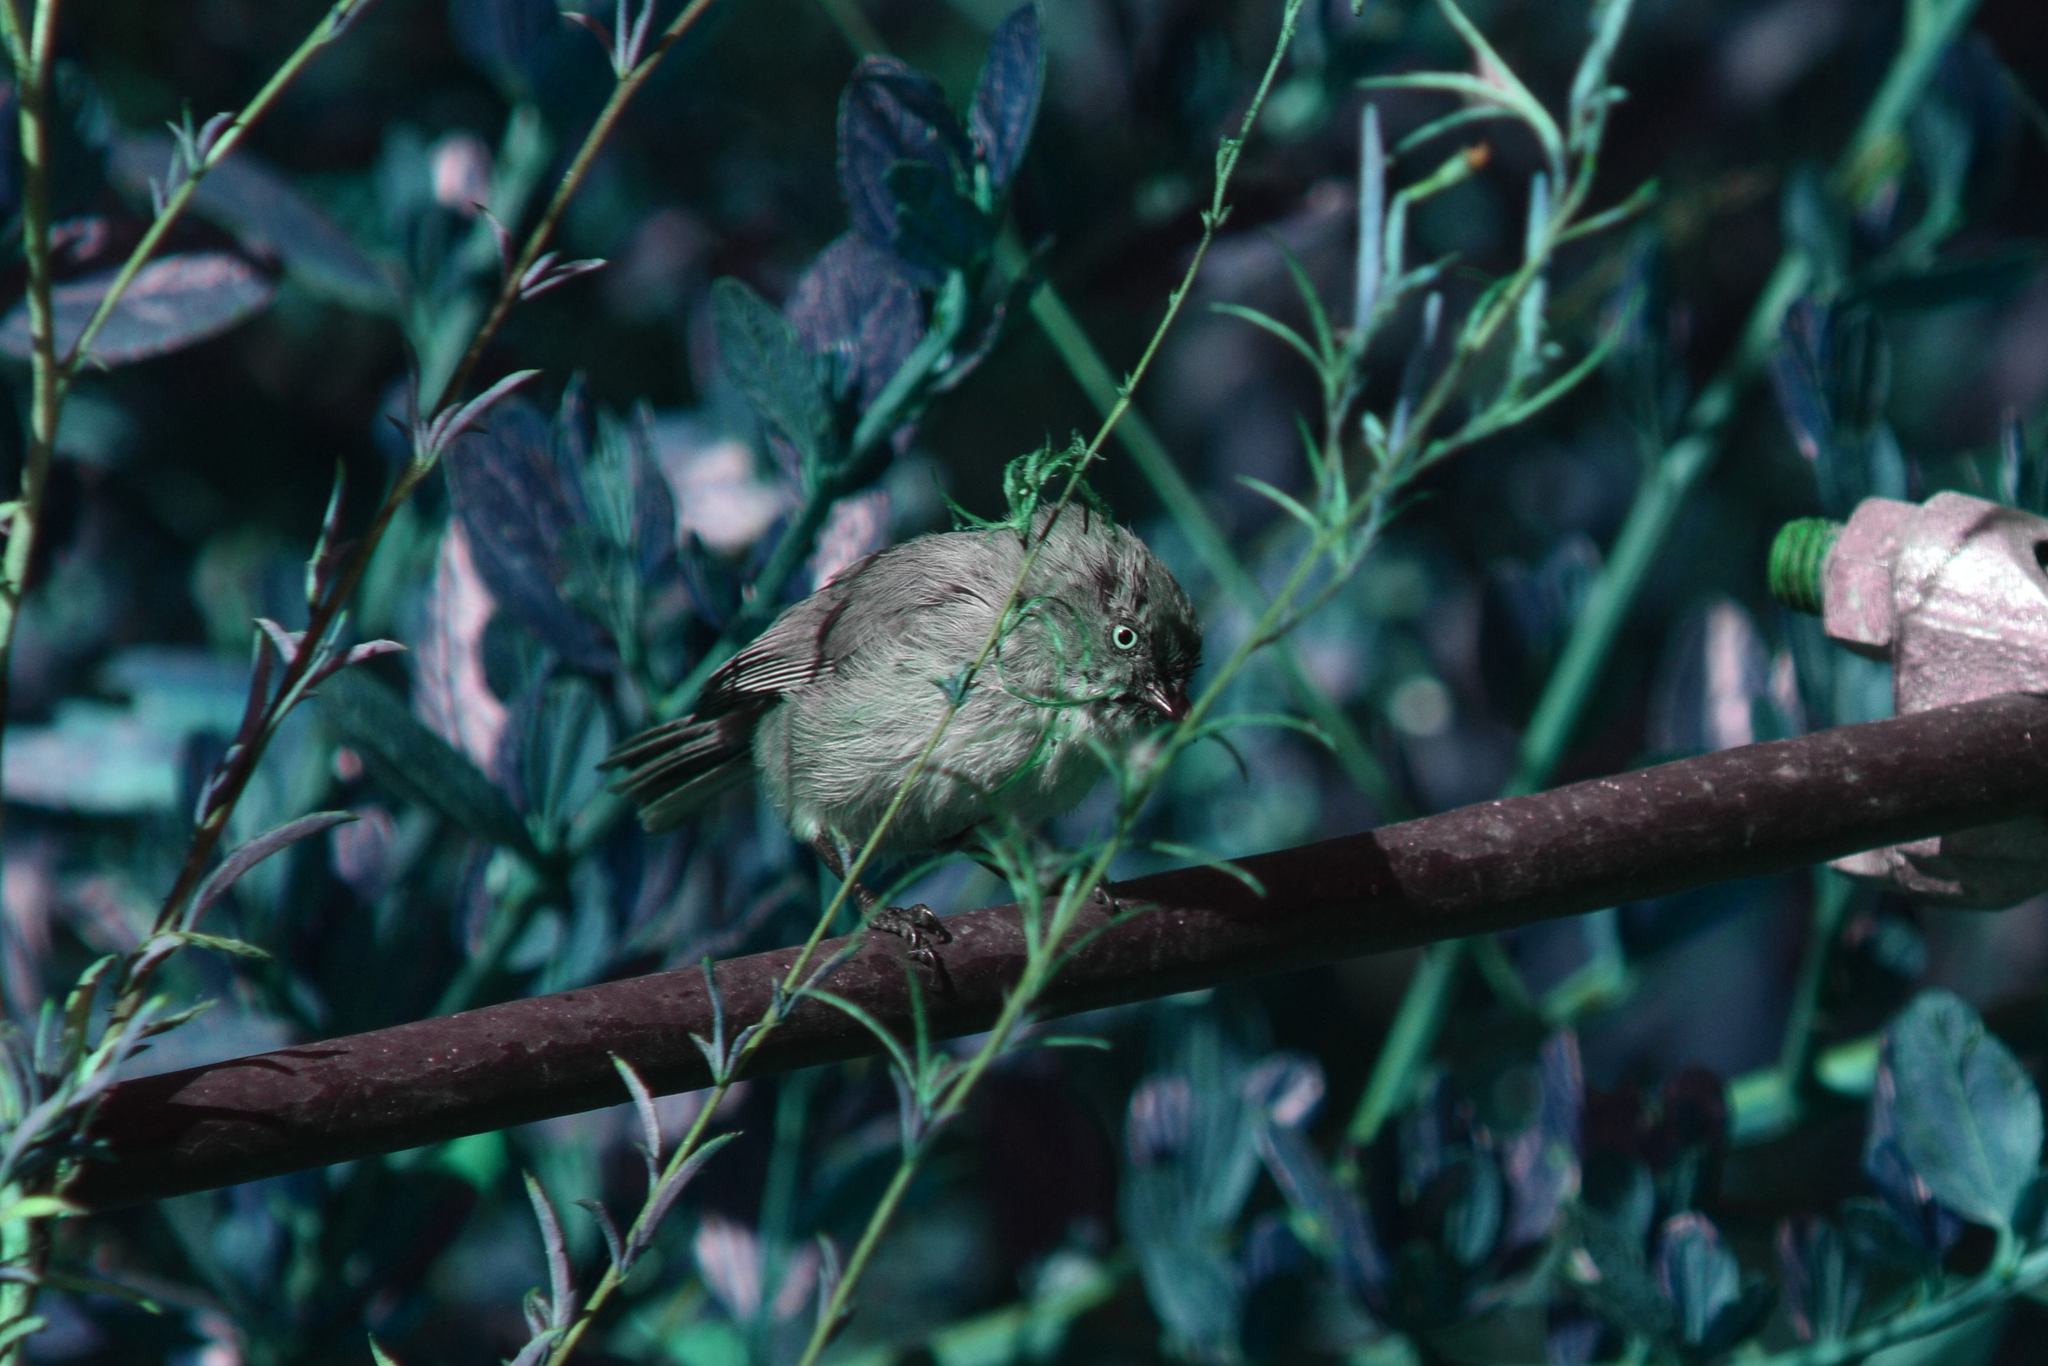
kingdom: Animalia
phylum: Chordata
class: Aves
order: Passeriformes
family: Aegithalidae
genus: Psaltriparus
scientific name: Psaltriparus minimus
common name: American bushtit
